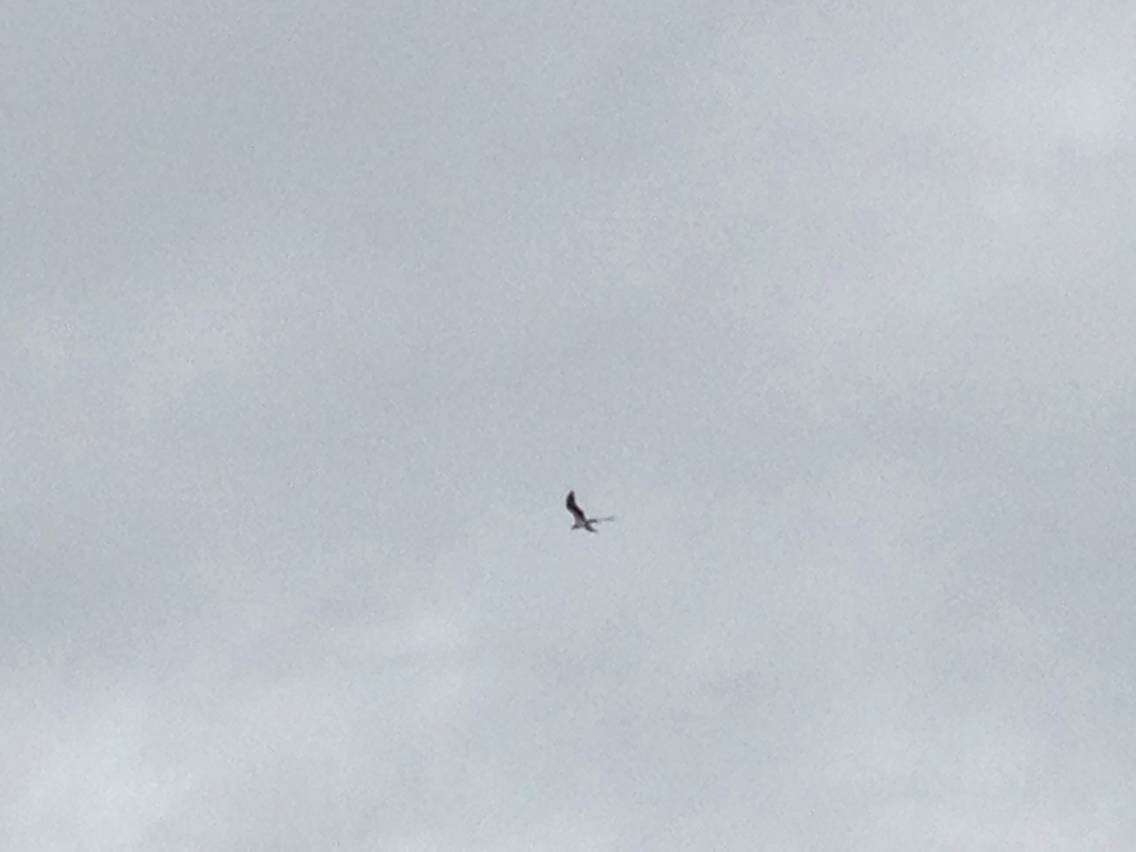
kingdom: Animalia
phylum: Chordata
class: Aves
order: Accipitriformes
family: Pandionidae
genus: Pandion
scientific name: Pandion haliaetus
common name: Osprey
